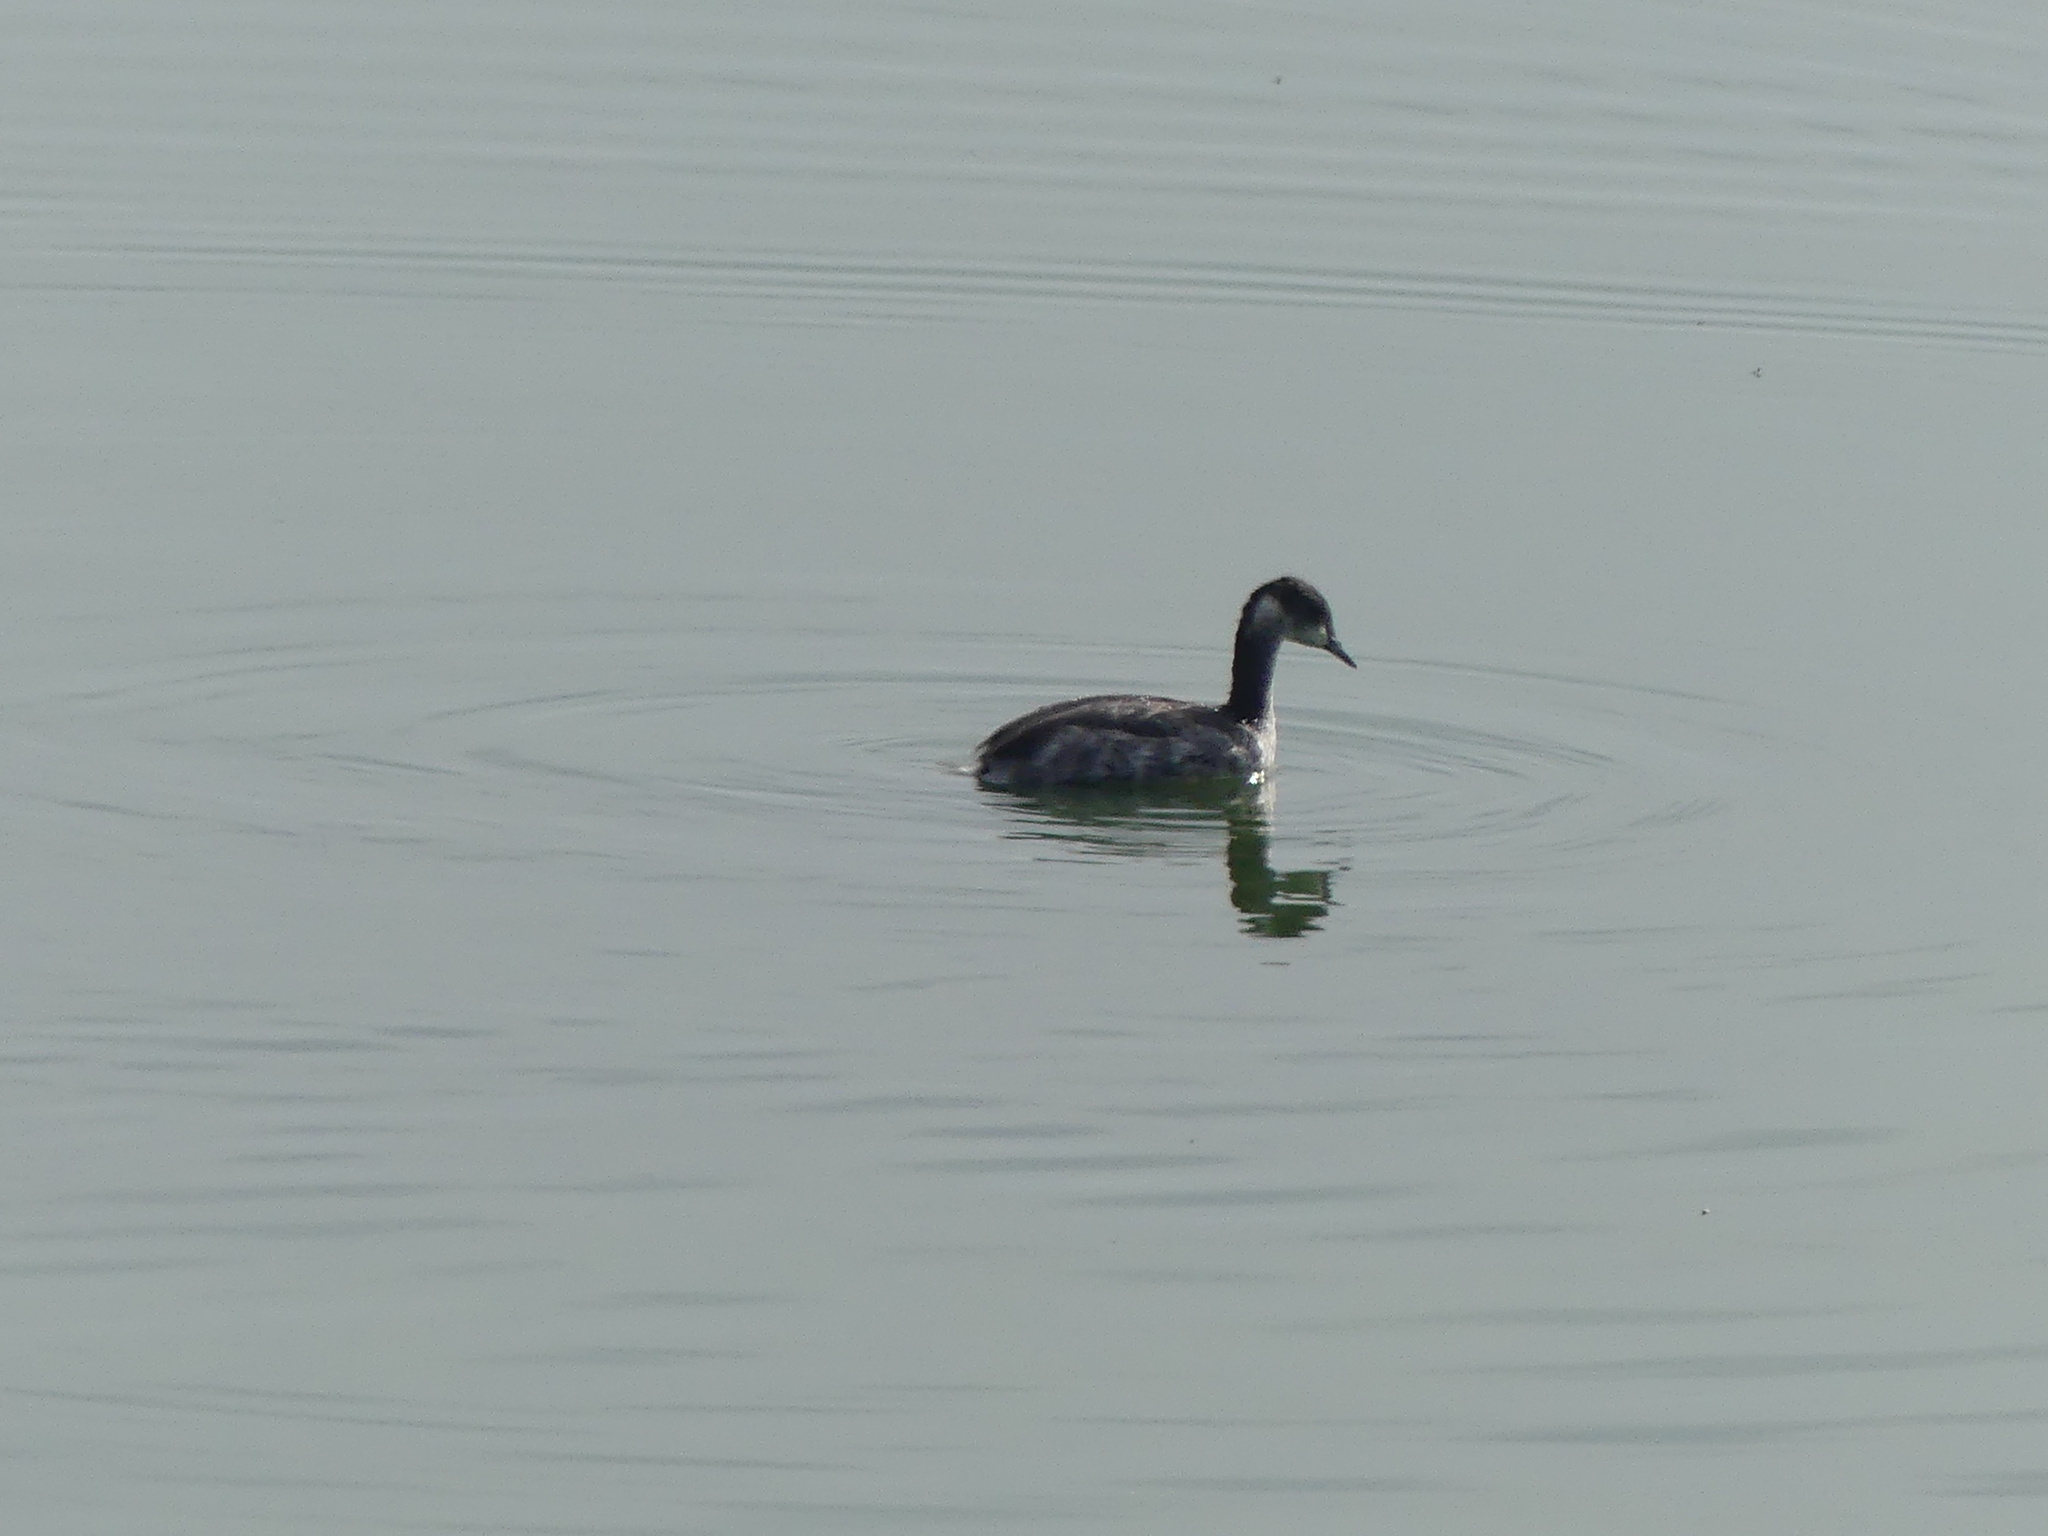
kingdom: Animalia
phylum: Chordata
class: Aves
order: Podicipediformes
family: Podicipedidae
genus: Podiceps
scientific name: Podiceps nigricollis
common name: Black-necked grebe
